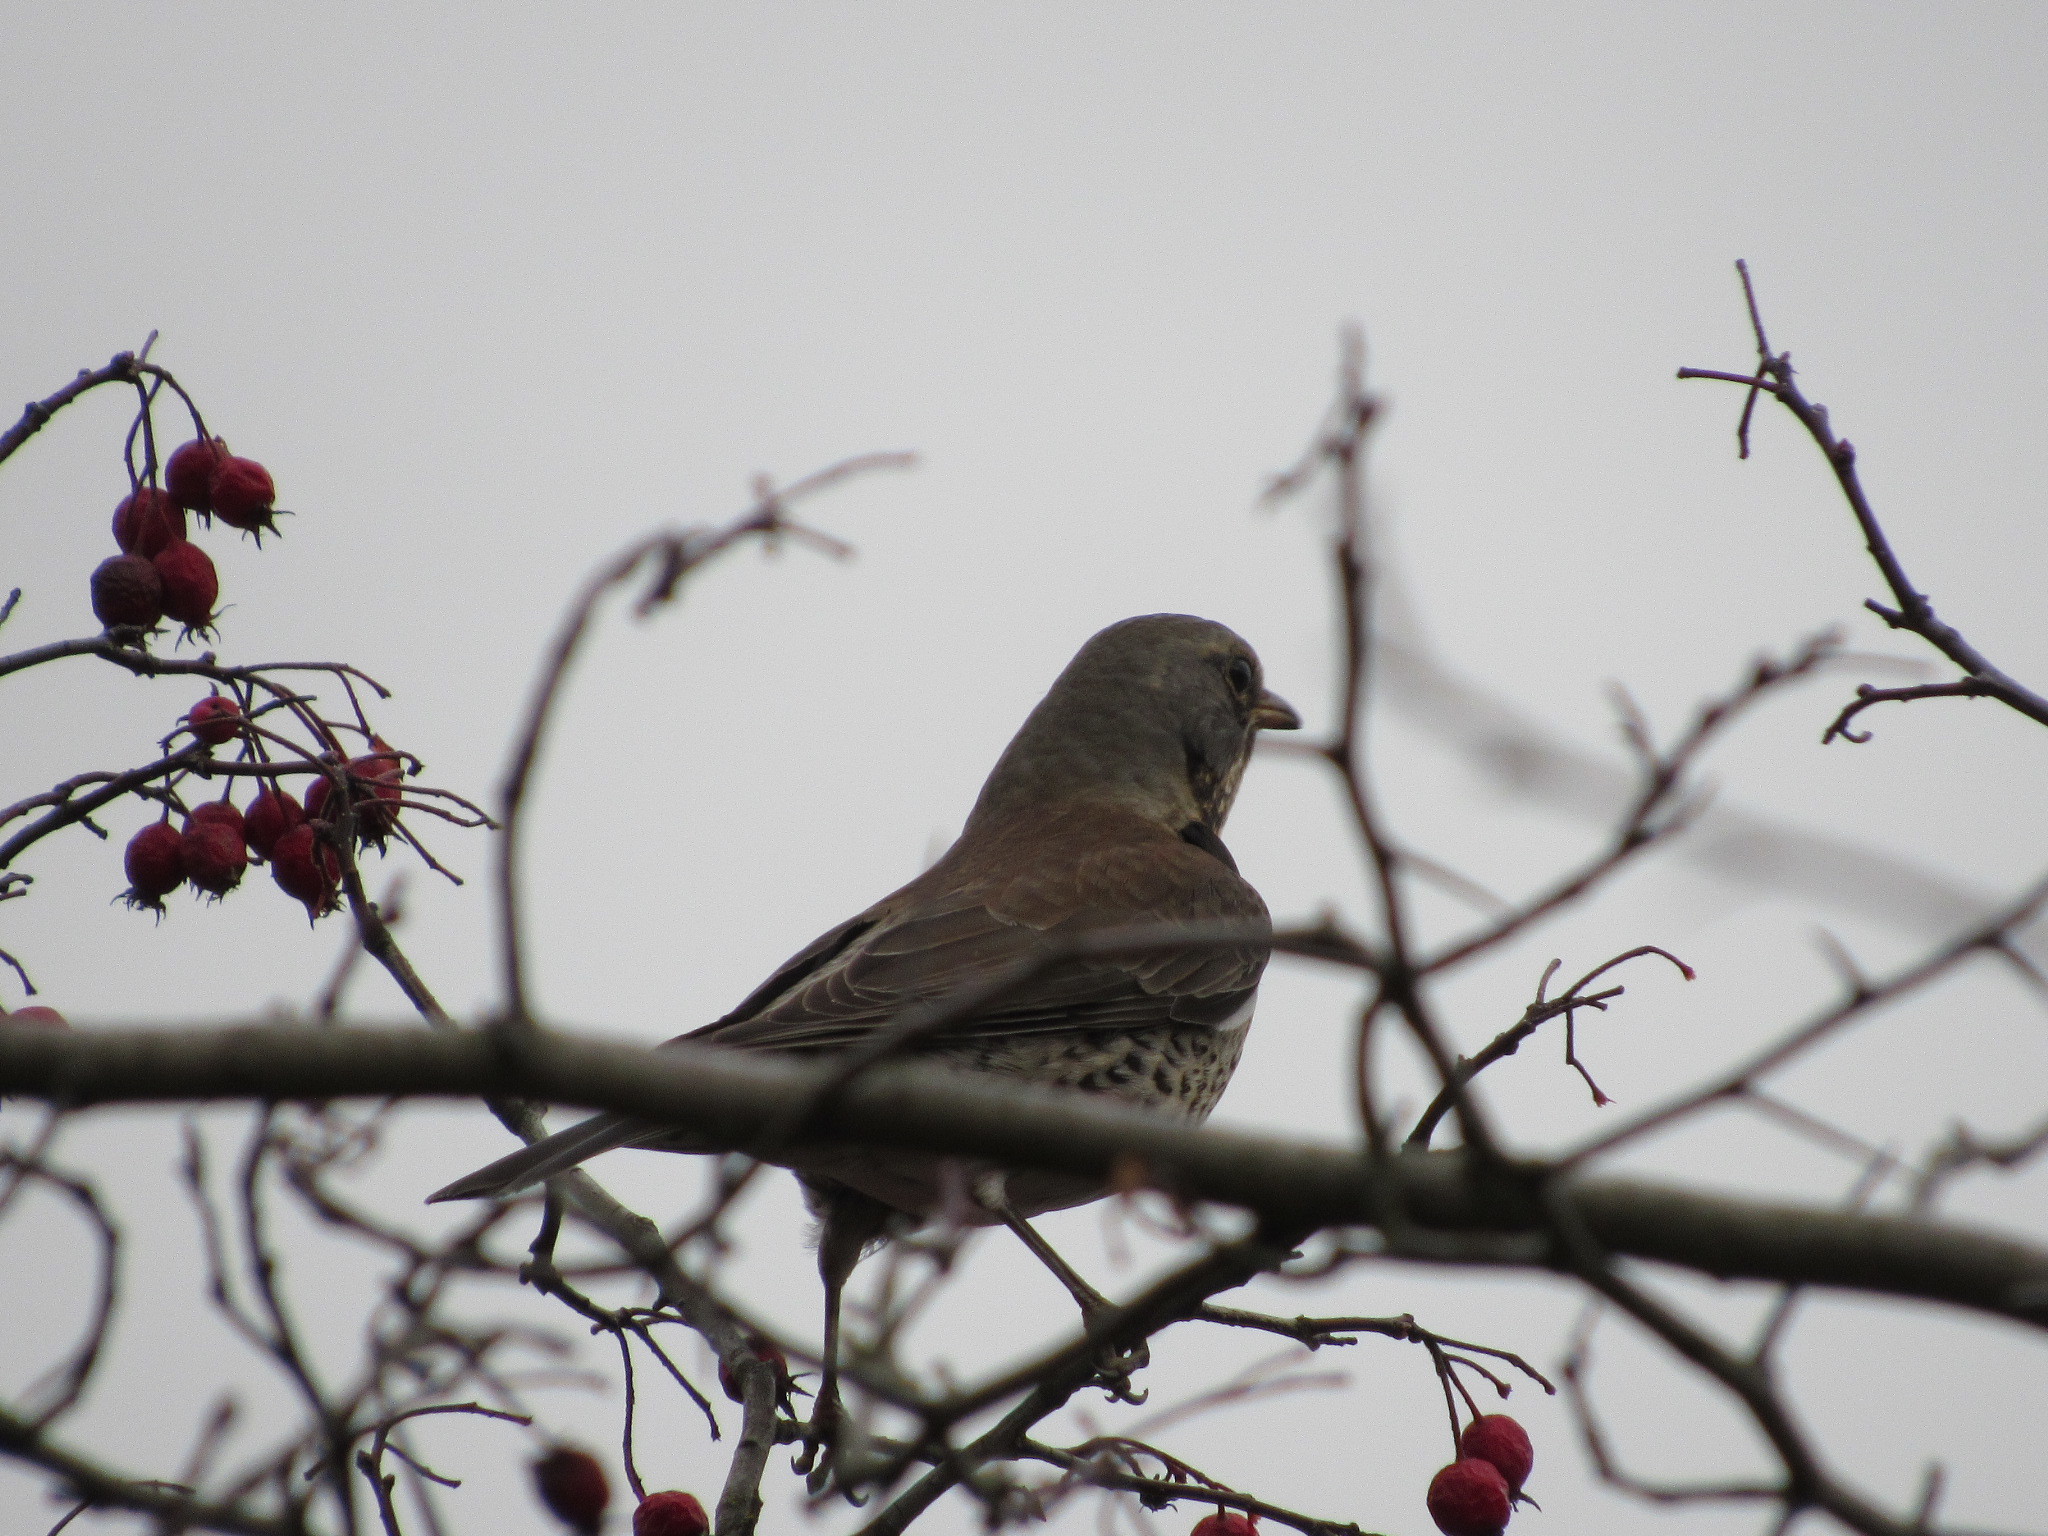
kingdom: Animalia
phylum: Chordata
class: Aves
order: Passeriformes
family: Turdidae
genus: Turdus
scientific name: Turdus pilaris
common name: Fieldfare
